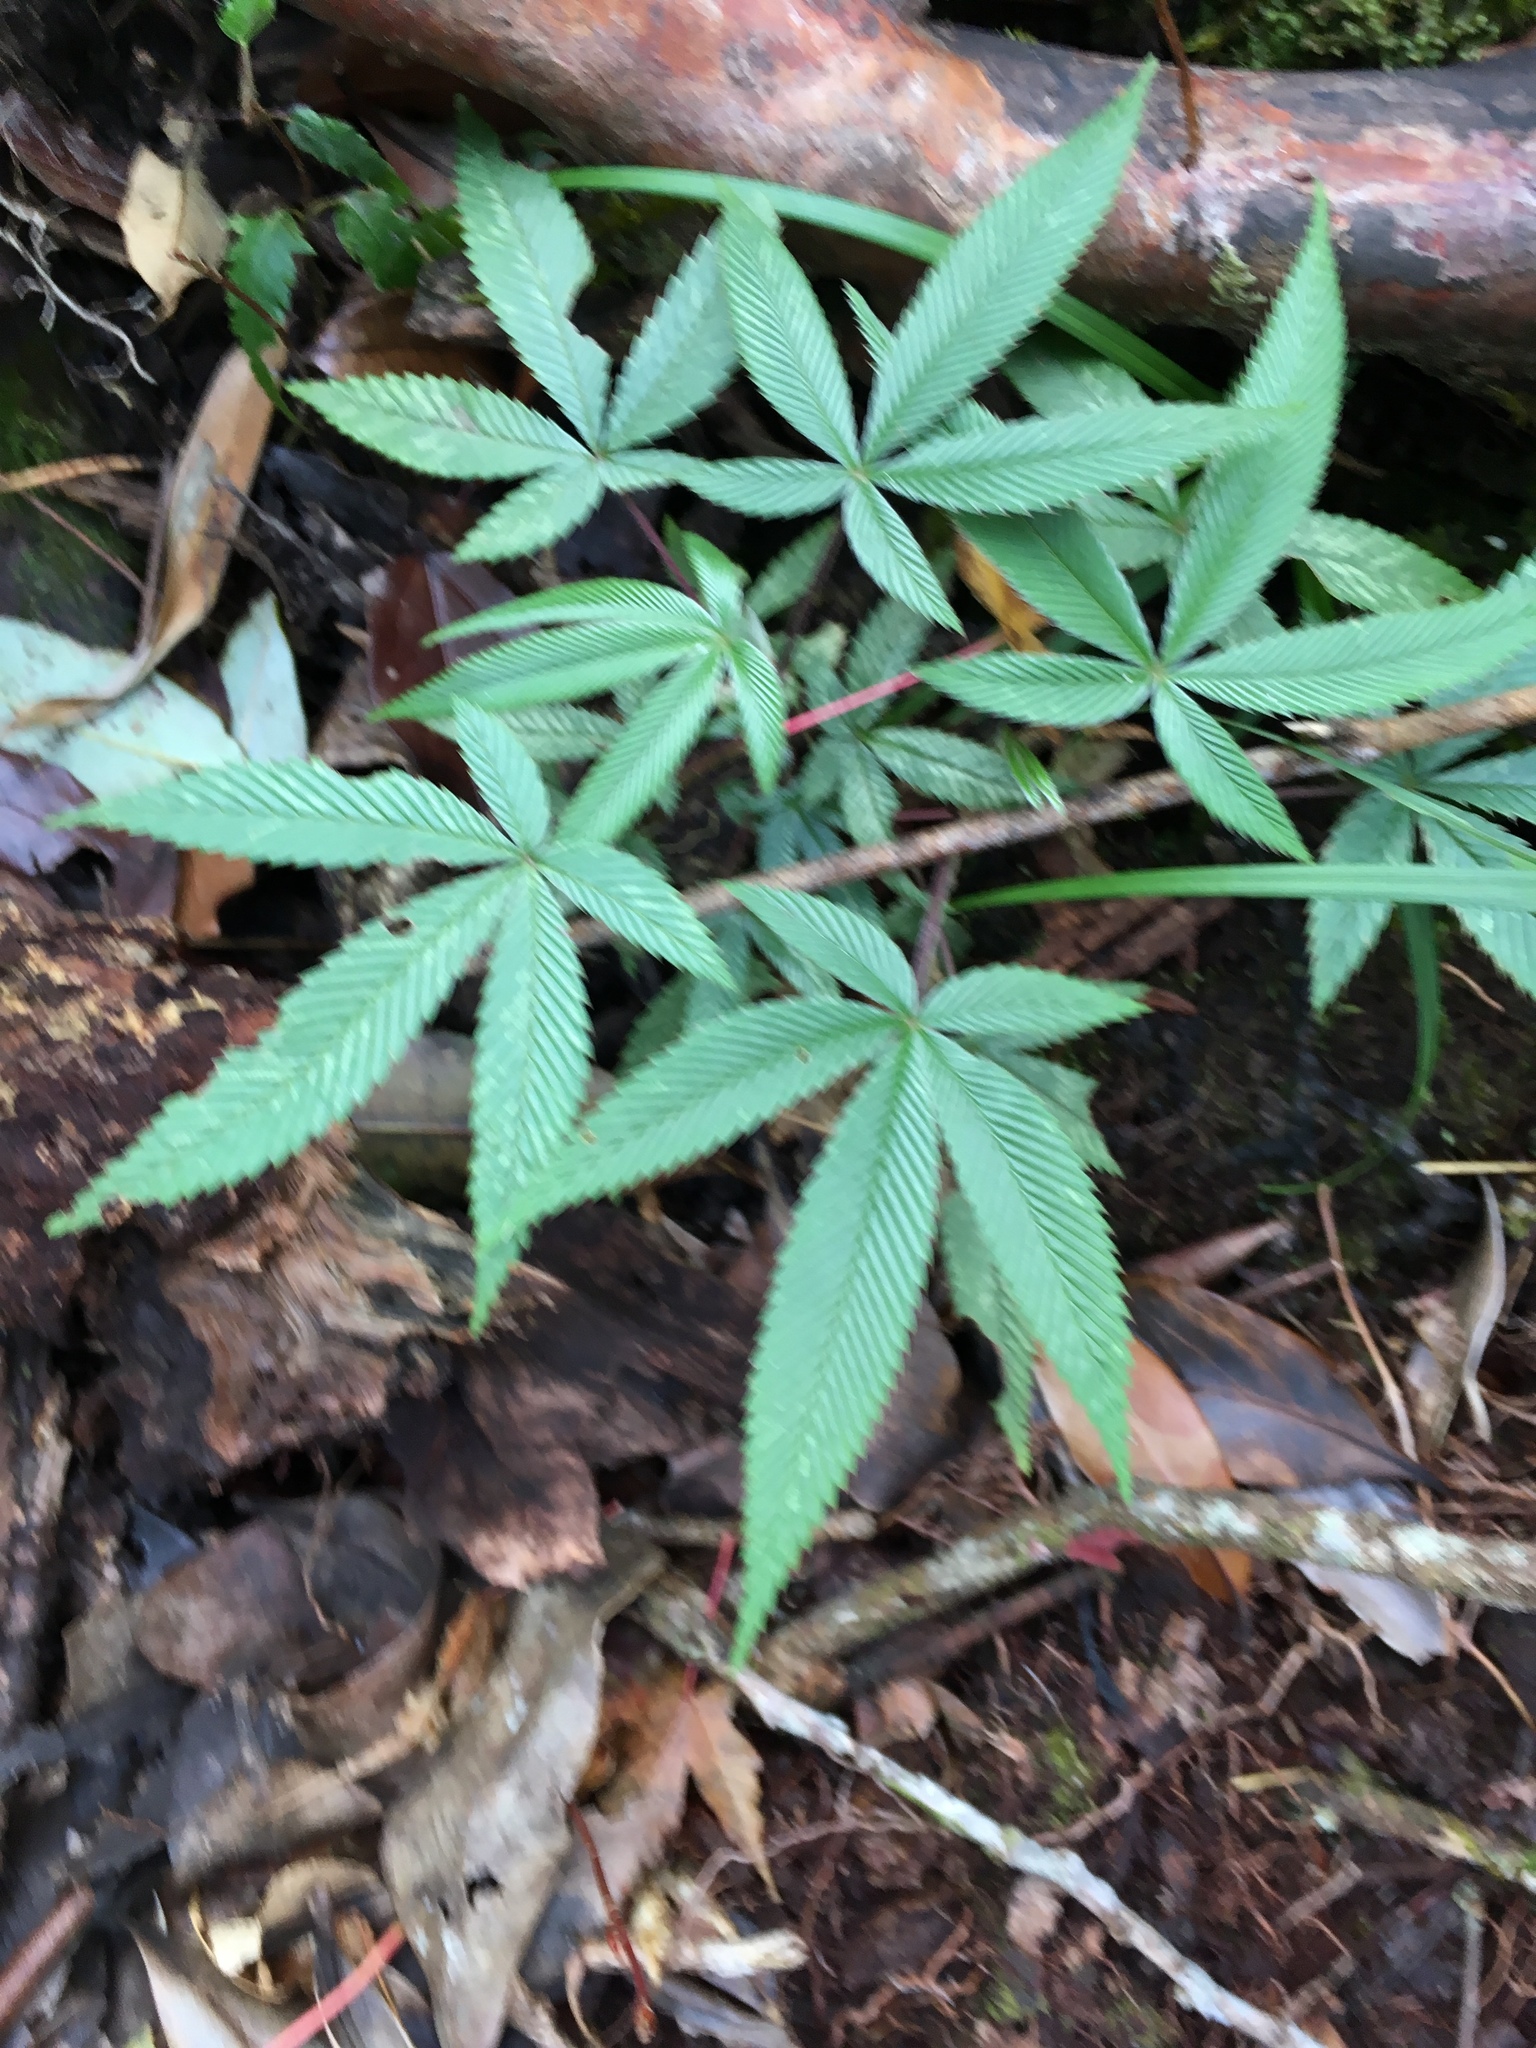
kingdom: Plantae
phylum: Tracheophyta
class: Magnoliopsida
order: Rosales
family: Rosaceae
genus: Rubus
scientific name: Rubus lineatus
